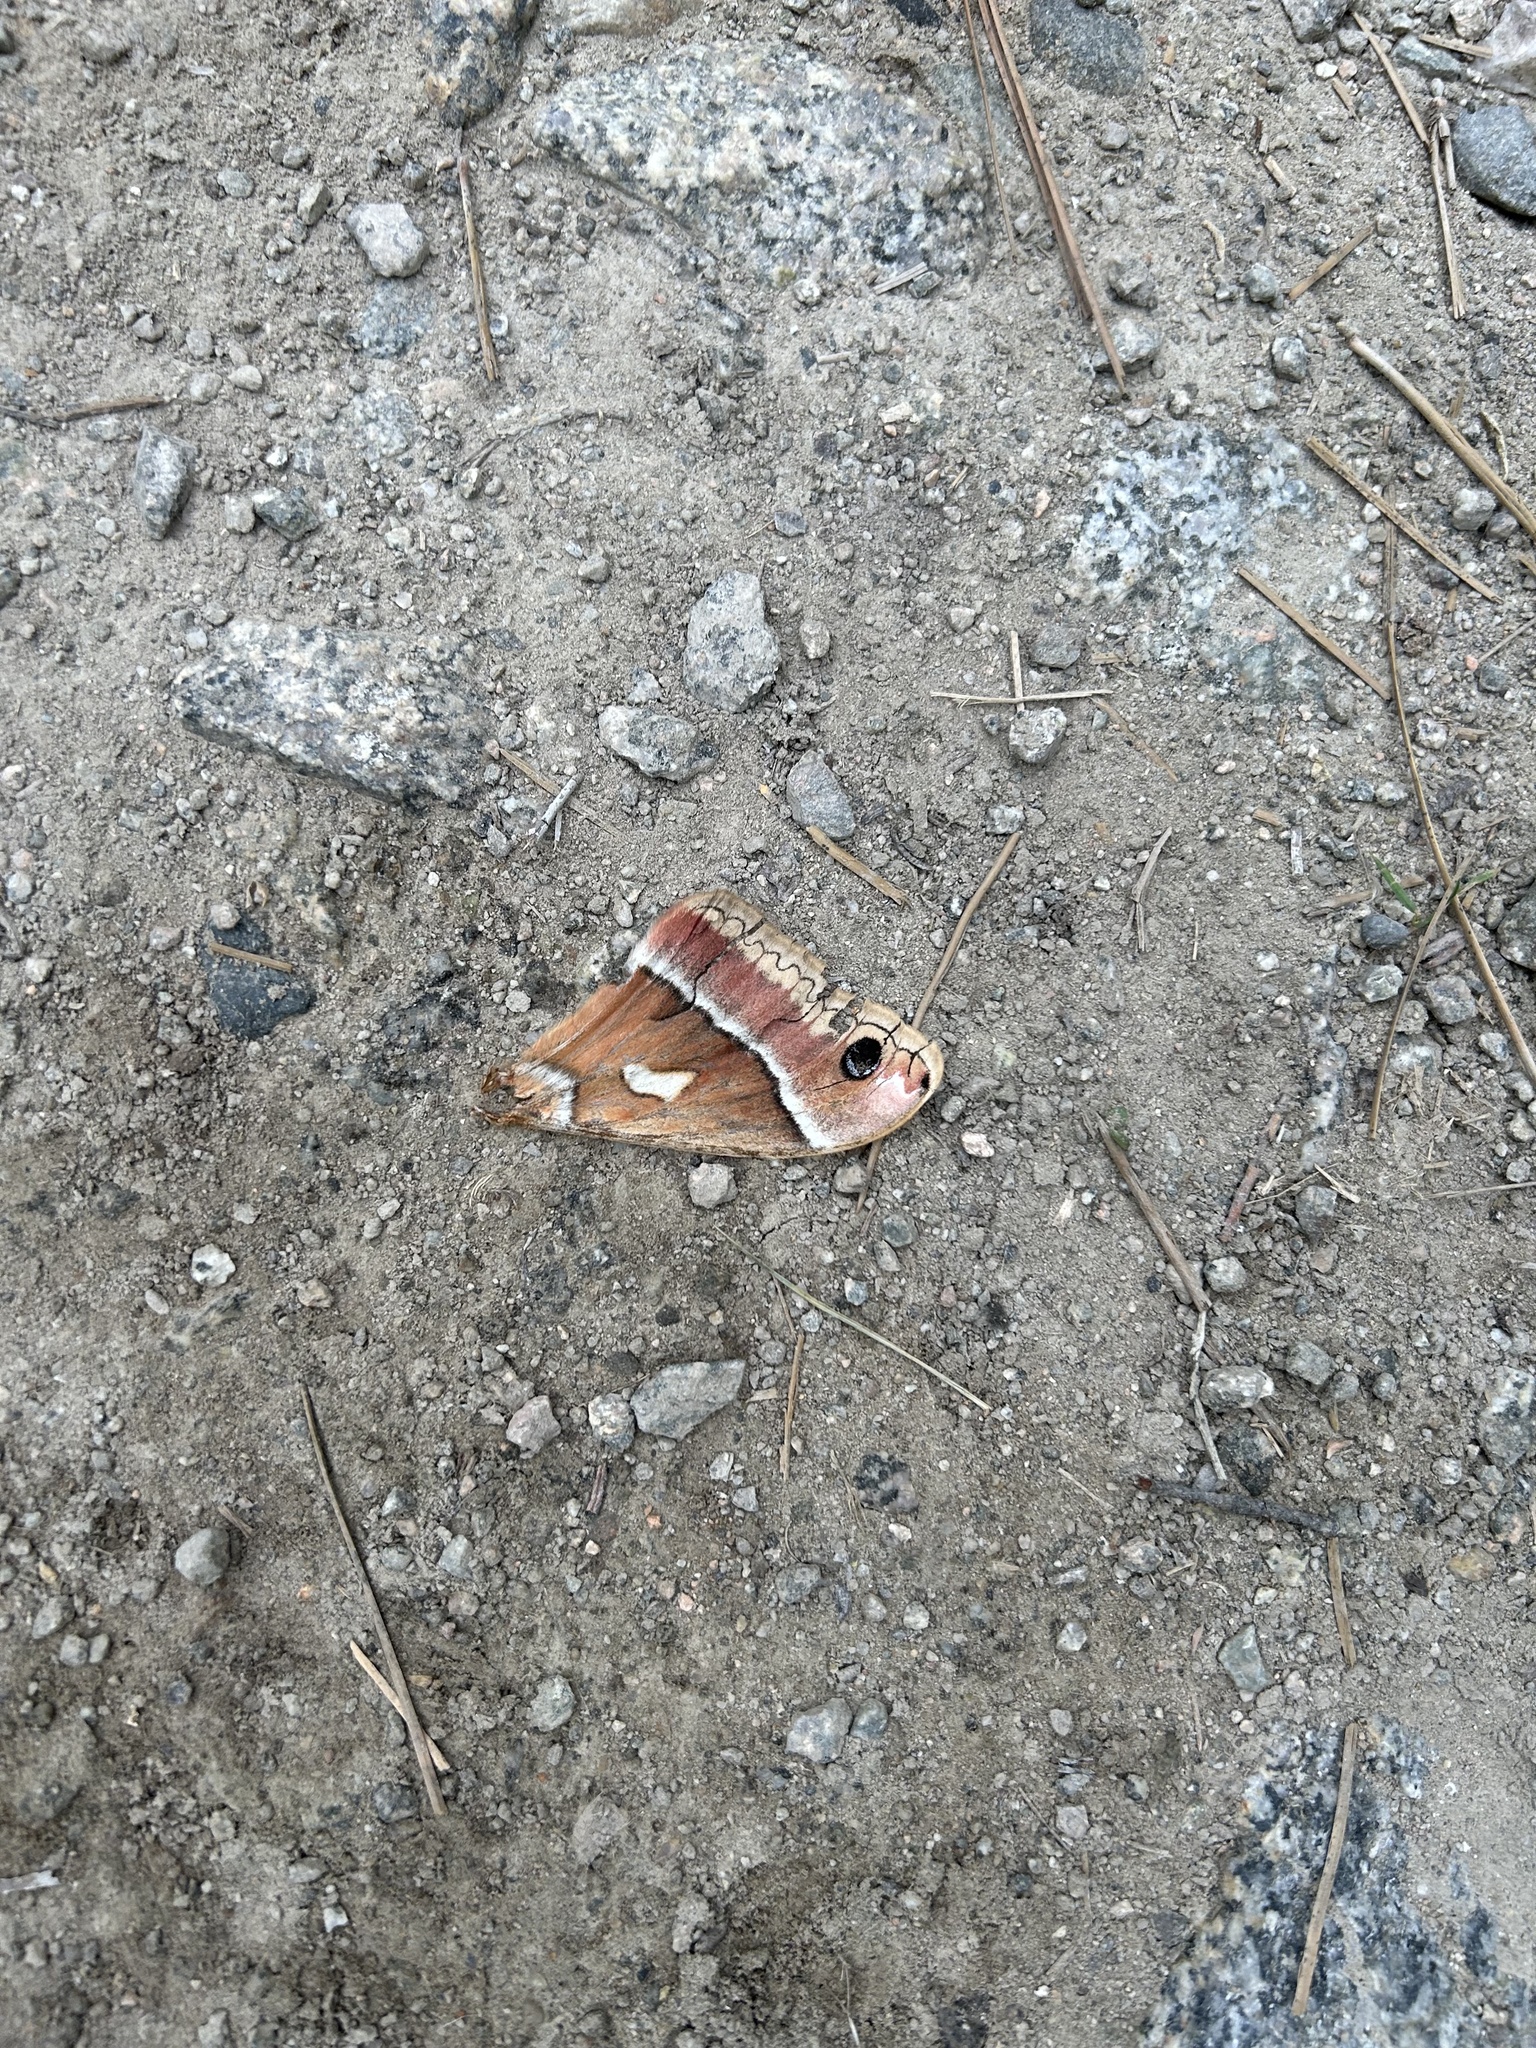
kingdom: Animalia
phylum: Arthropoda
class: Insecta
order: Lepidoptera
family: Saturniidae
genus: Hyalophora
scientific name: Hyalophora euryalus
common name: Ceanothus silkmoth
